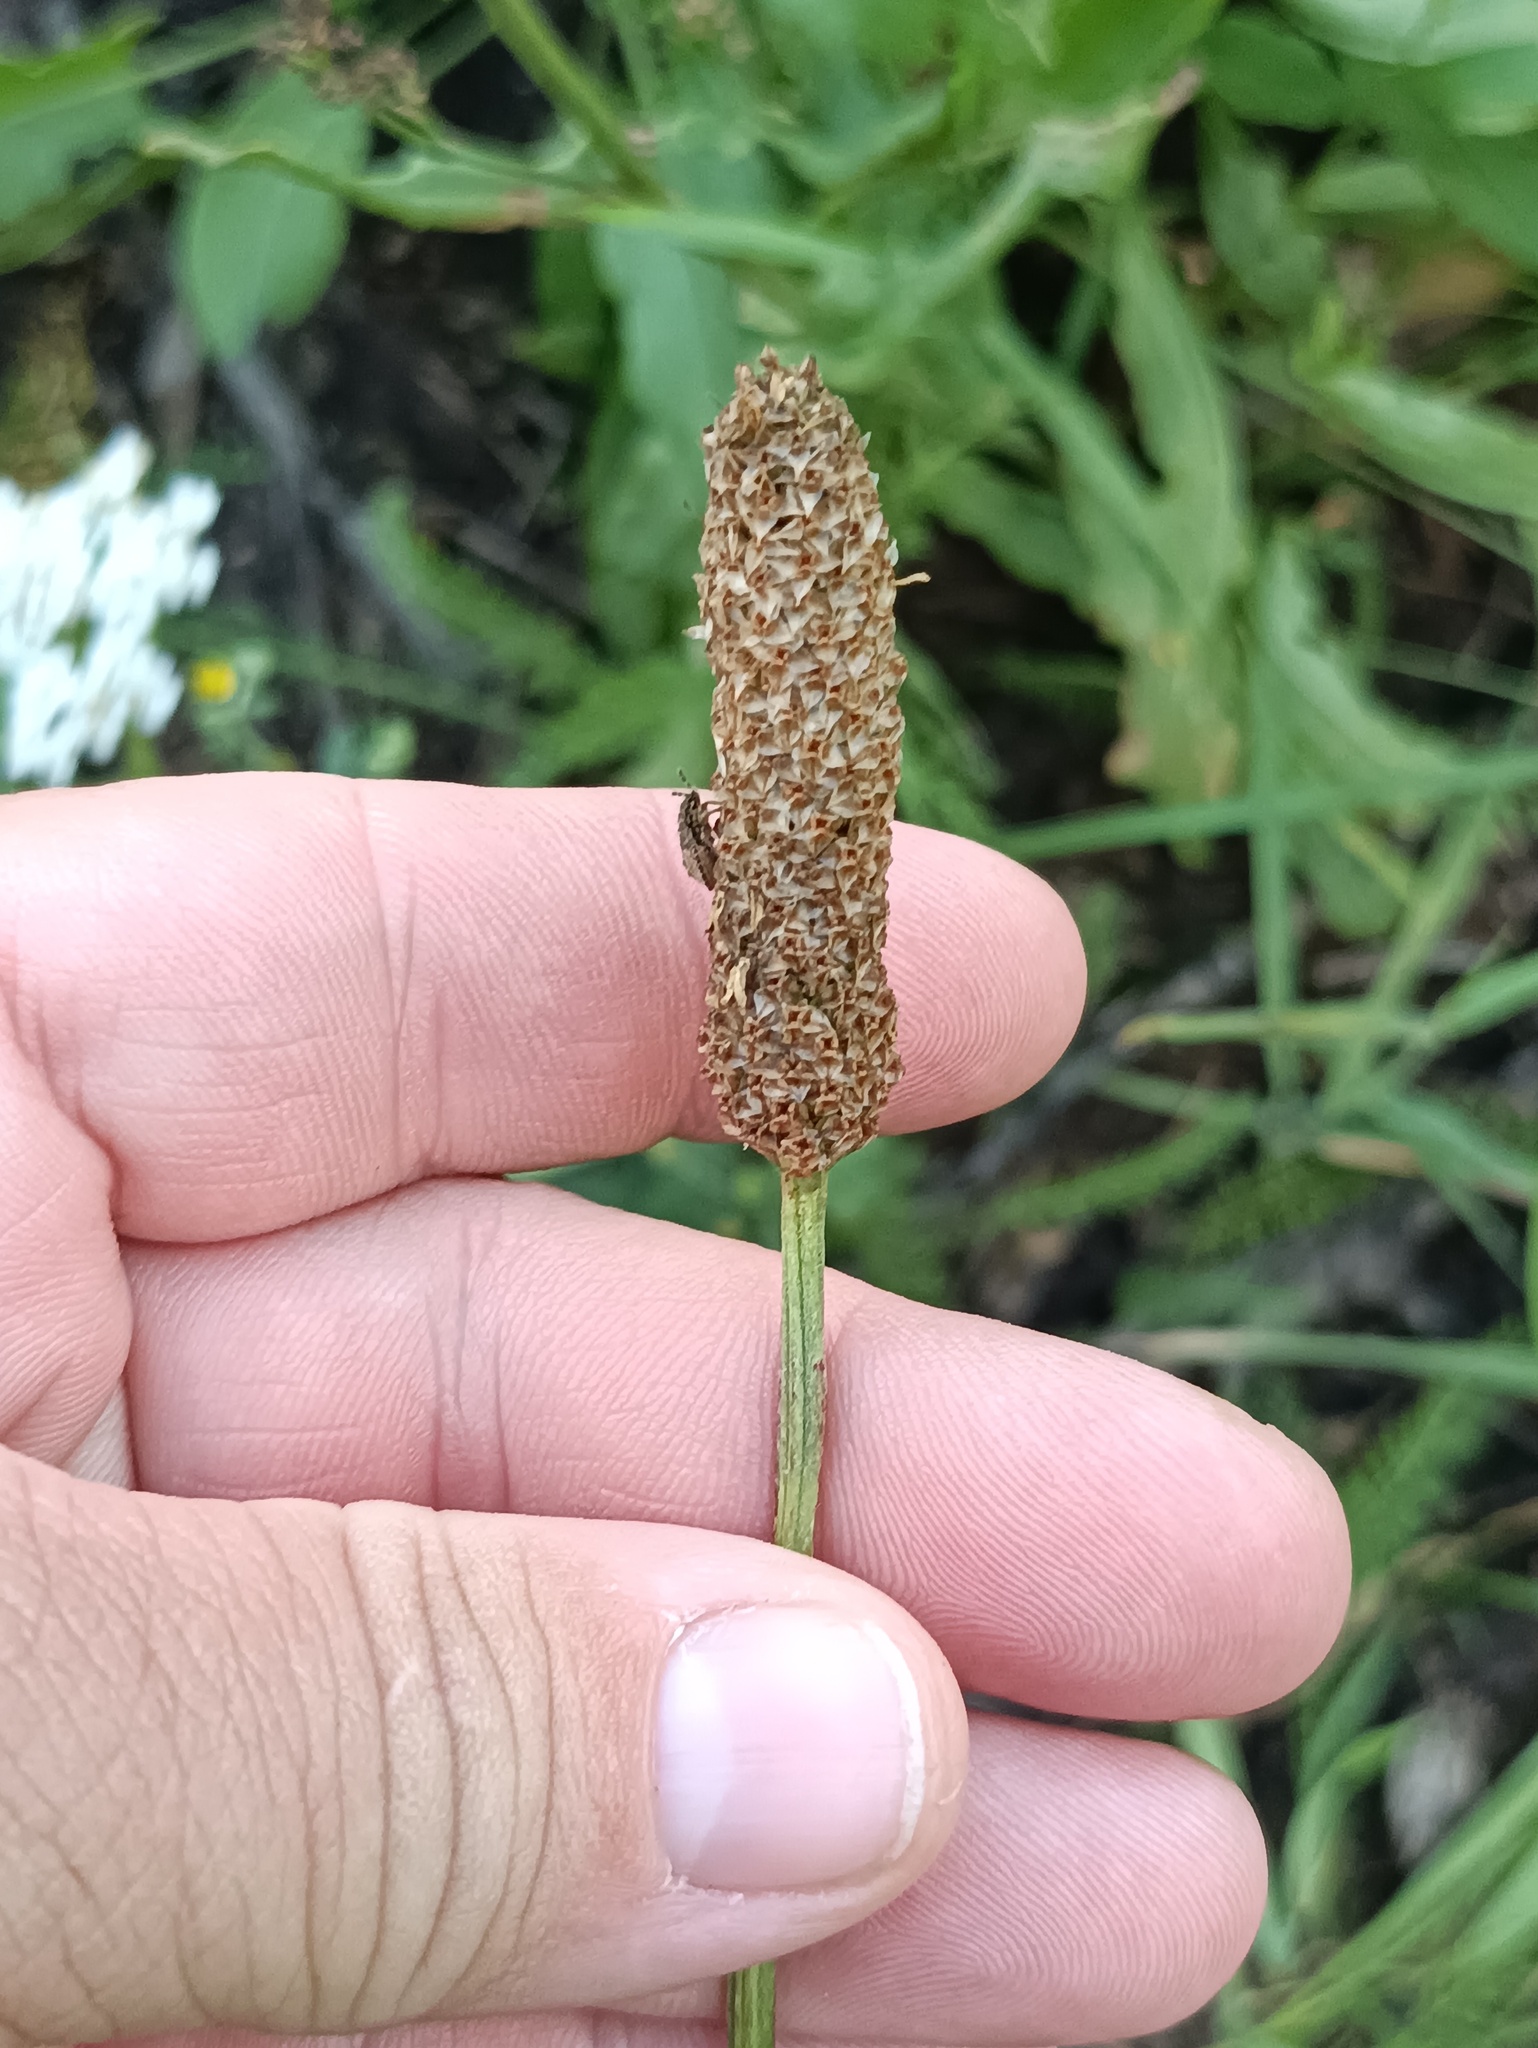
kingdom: Plantae
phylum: Tracheophyta
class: Magnoliopsida
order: Lamiales
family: Plantaginaceae
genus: Plantago
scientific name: Plantago lanceolata
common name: Ribwort plantain
